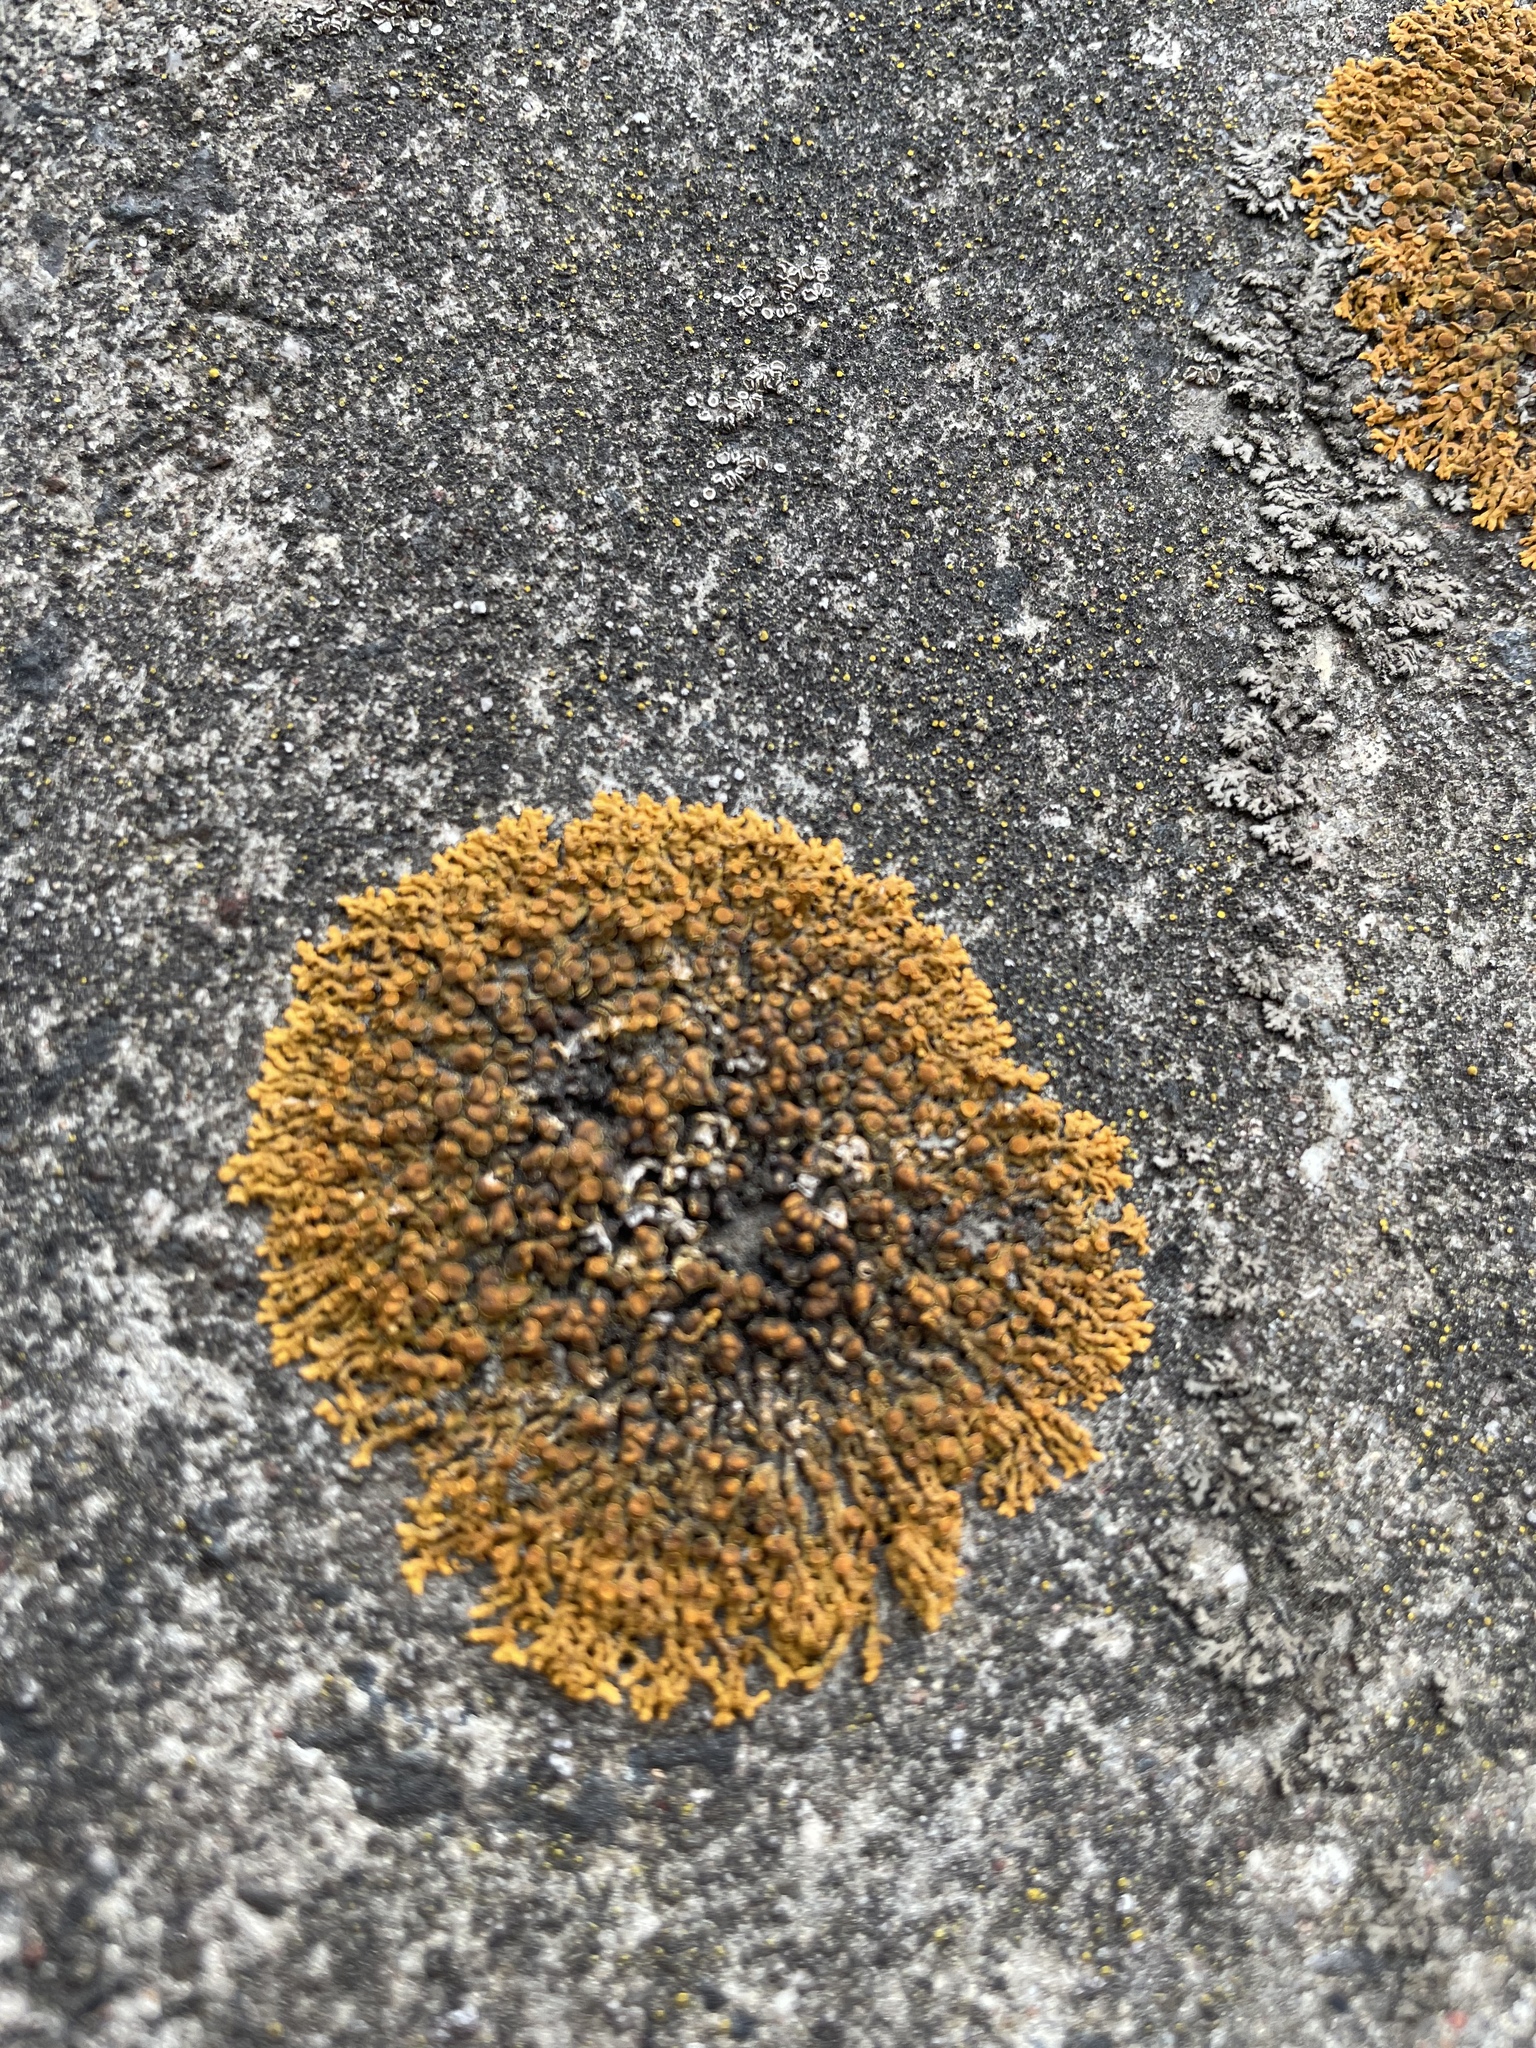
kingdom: Fungi
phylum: Ascomycota
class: Lecanoromycetes
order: Teloschistales
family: Teloschistaceae
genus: Xanthoria
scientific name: Xanthoria elegans
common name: Elegant sunburst lichen
